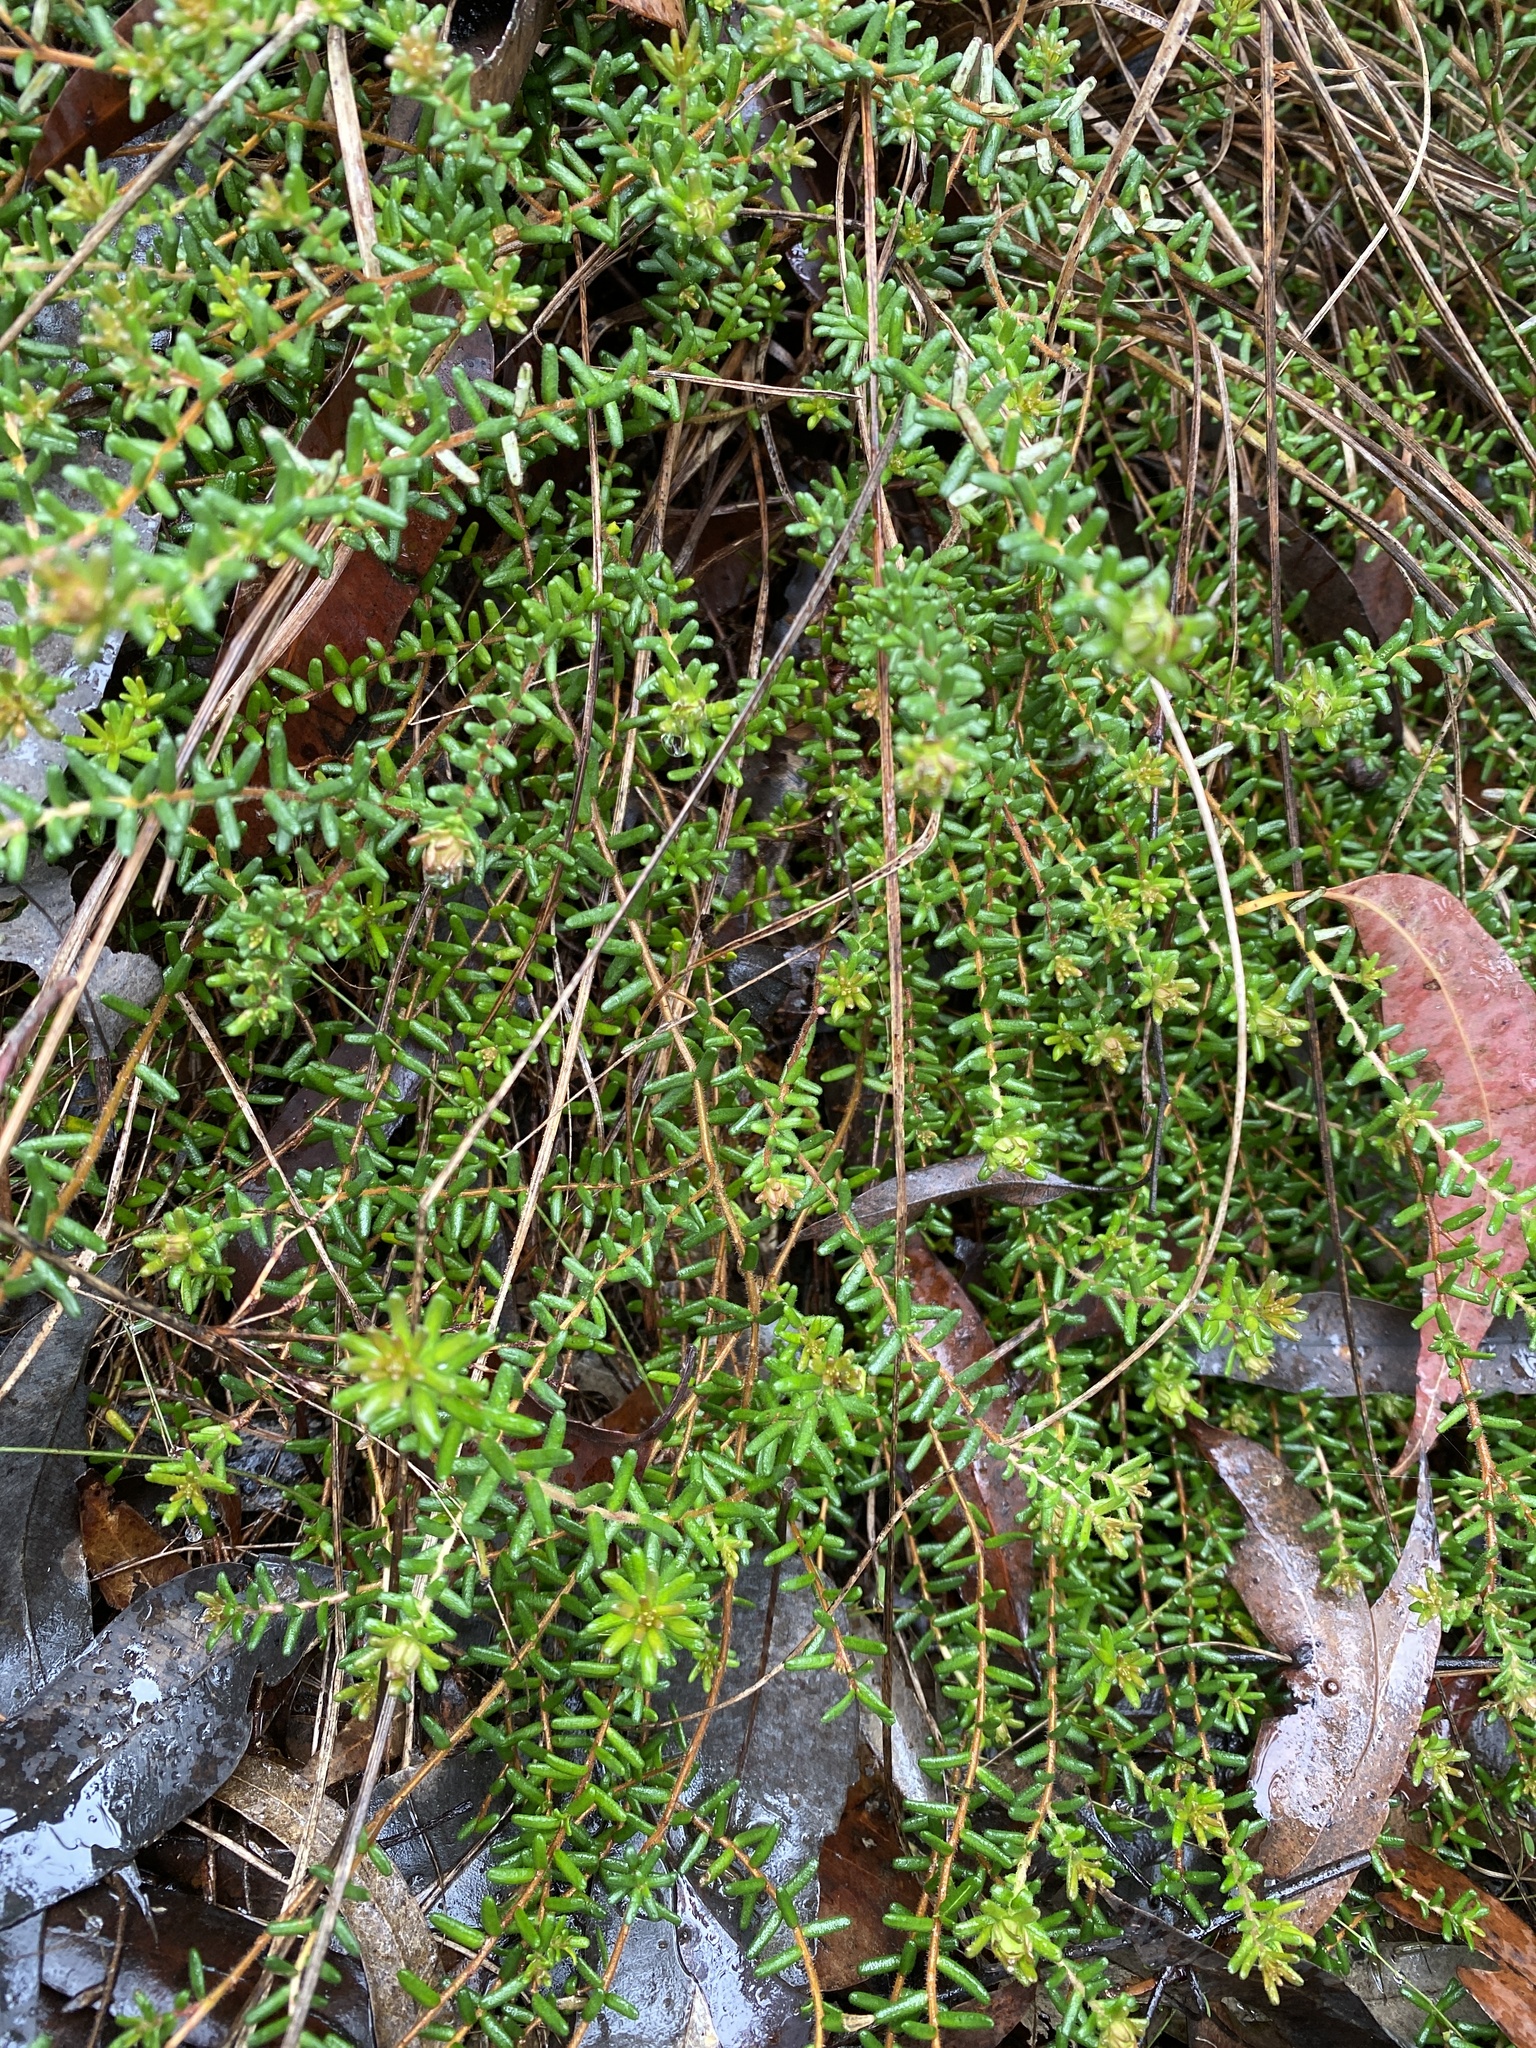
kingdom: Plantae
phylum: Tracheophyta
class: Magnoliopsida
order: Dilleniales
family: Dilleniaceae
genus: Hibbertia
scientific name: Hibbertia vestita
